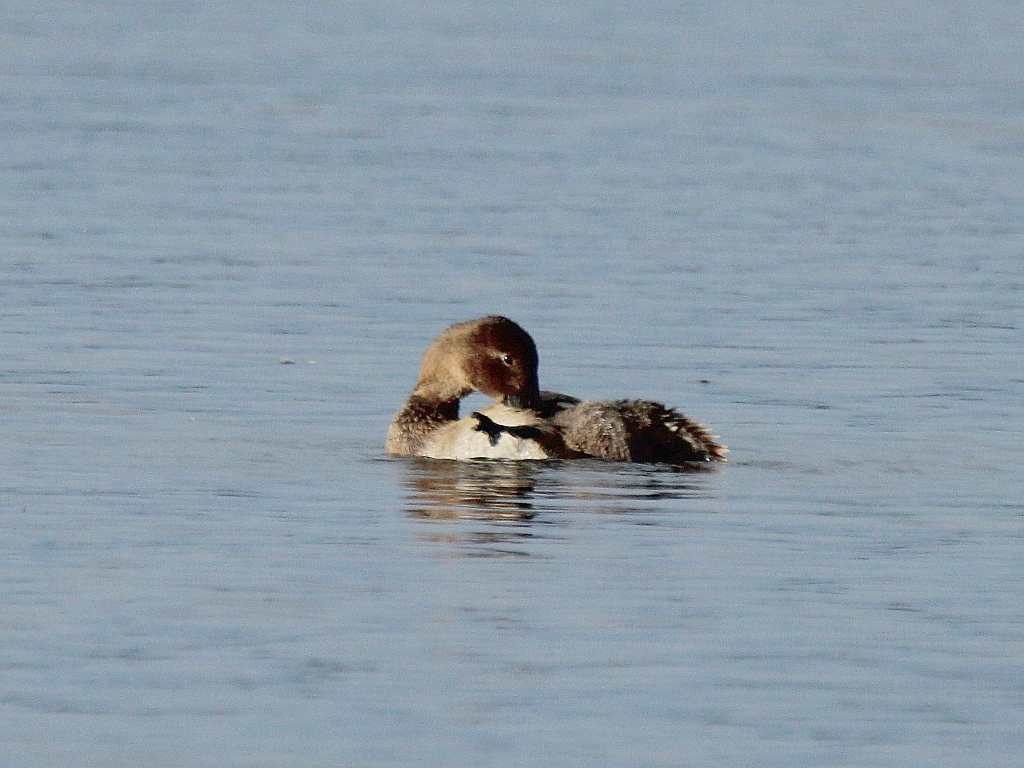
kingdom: Animalia
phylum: Chordata
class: Aves
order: Anseriformes
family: Anatidae
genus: Aythya
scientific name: Aythya ferina
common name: Common pochard
